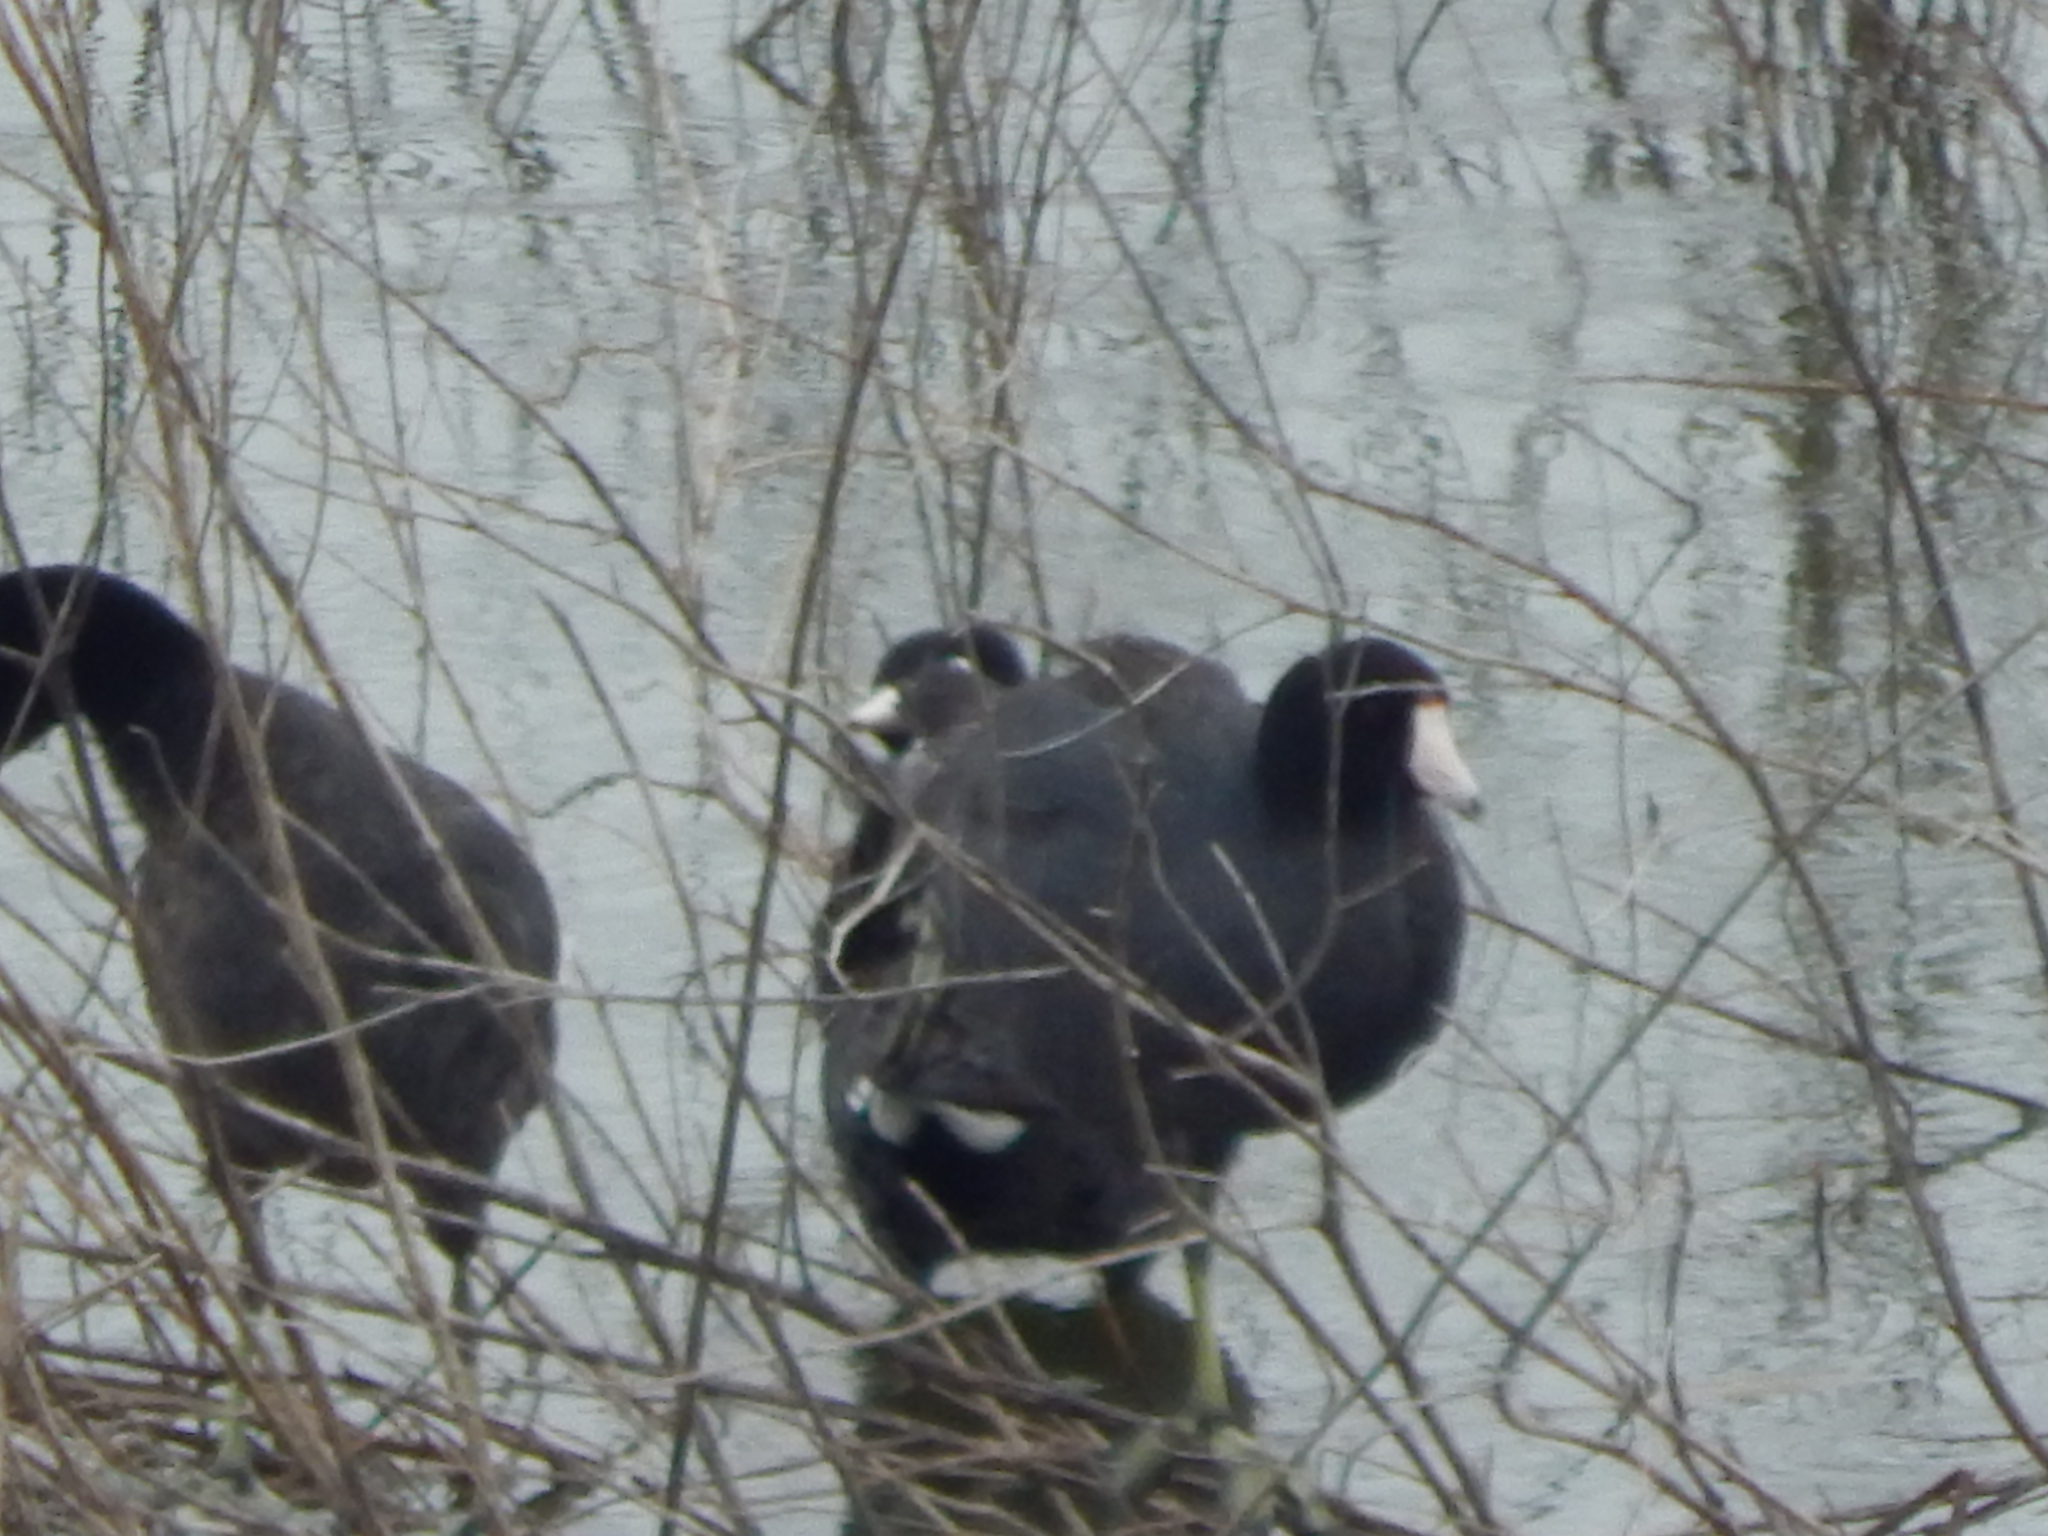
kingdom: Animalia
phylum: Chordata
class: Aves
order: Gruiformes
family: Rallidae
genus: Fulica
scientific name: Fulica americana
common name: American coot
